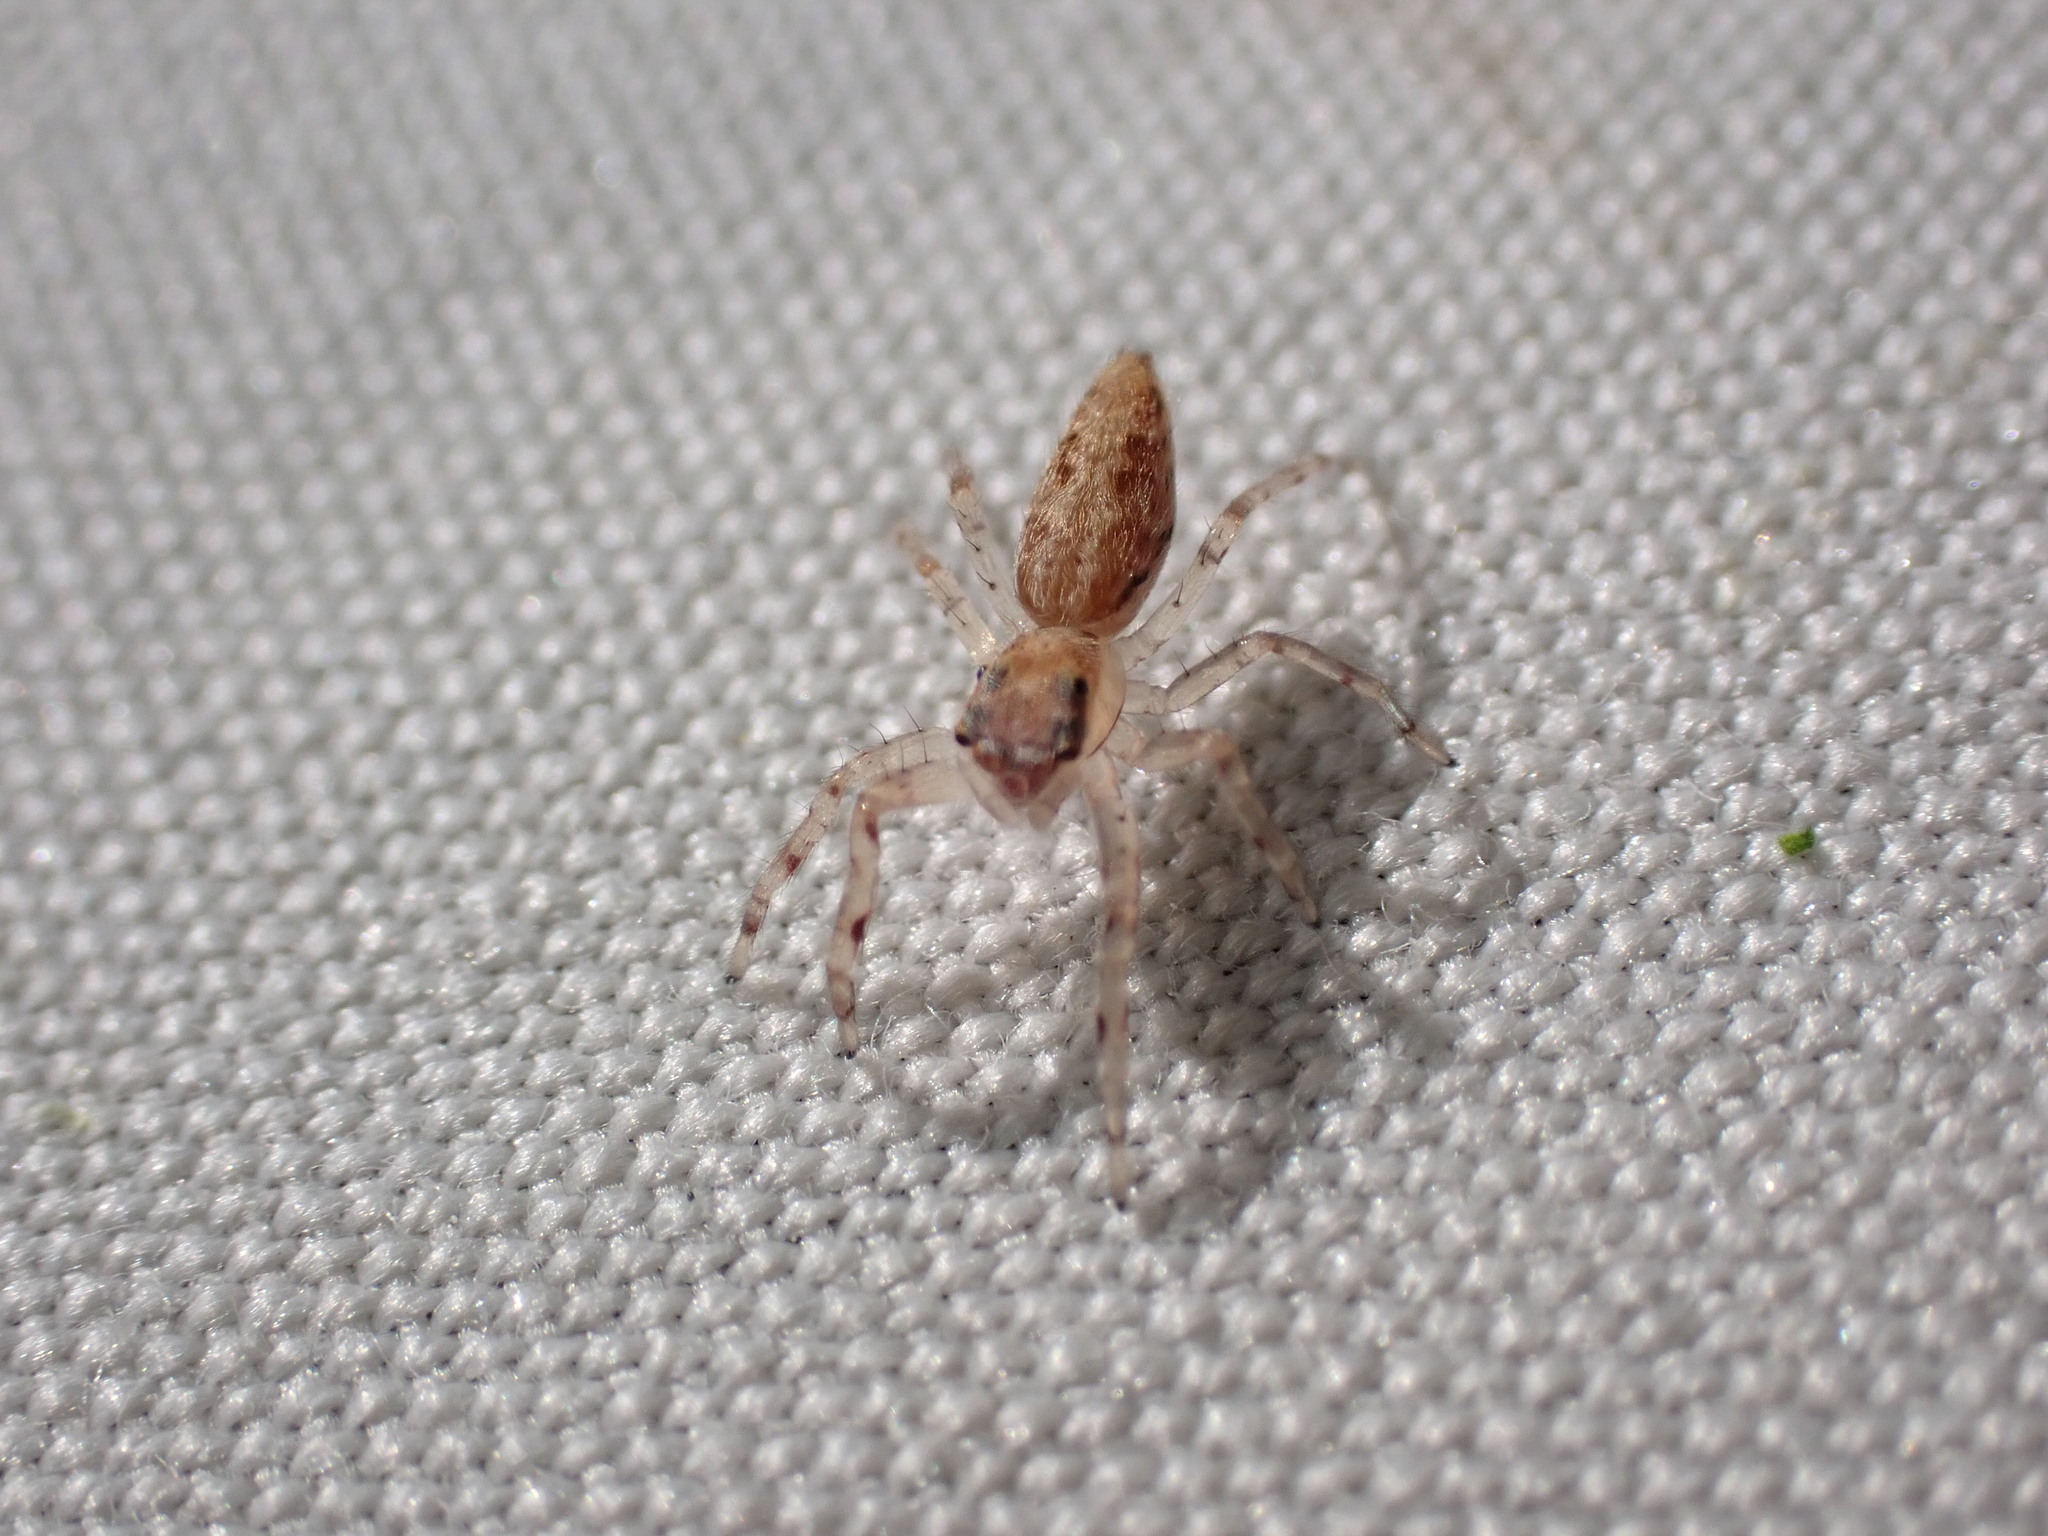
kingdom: Animalia
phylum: Arthropoda
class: Arachnida
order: Araneae
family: Salticidae
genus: Helpis
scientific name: Helpis minitabunda
